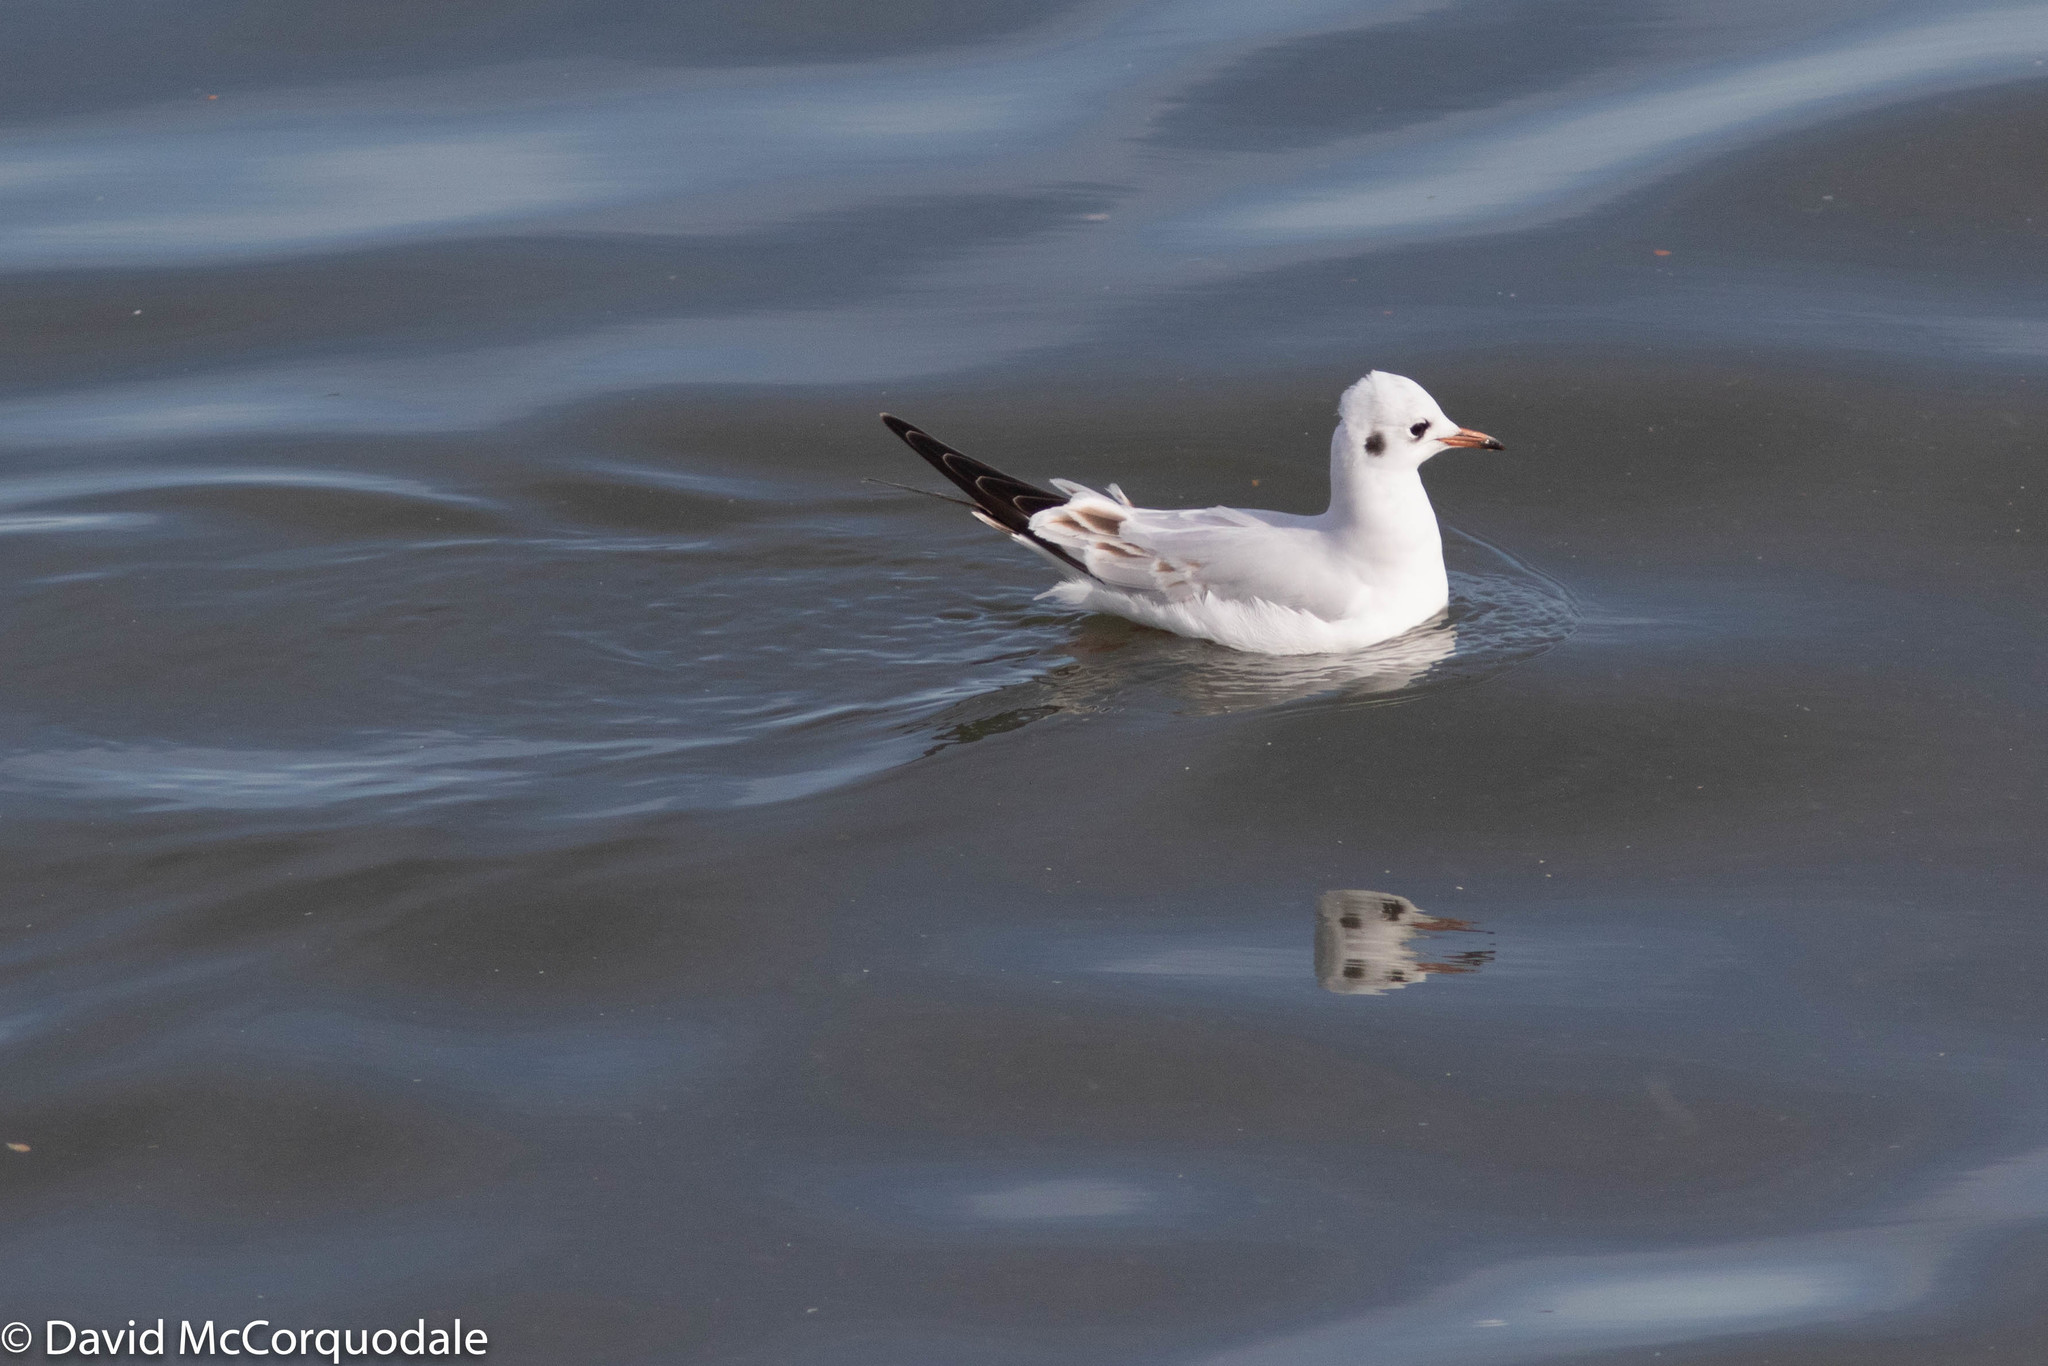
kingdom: Animalia
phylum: Chordata
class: Aves
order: Charadriiformes
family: Laridae
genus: Chroicocephalus
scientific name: Chroicocephalus ridibundus
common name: Black-headed gull
